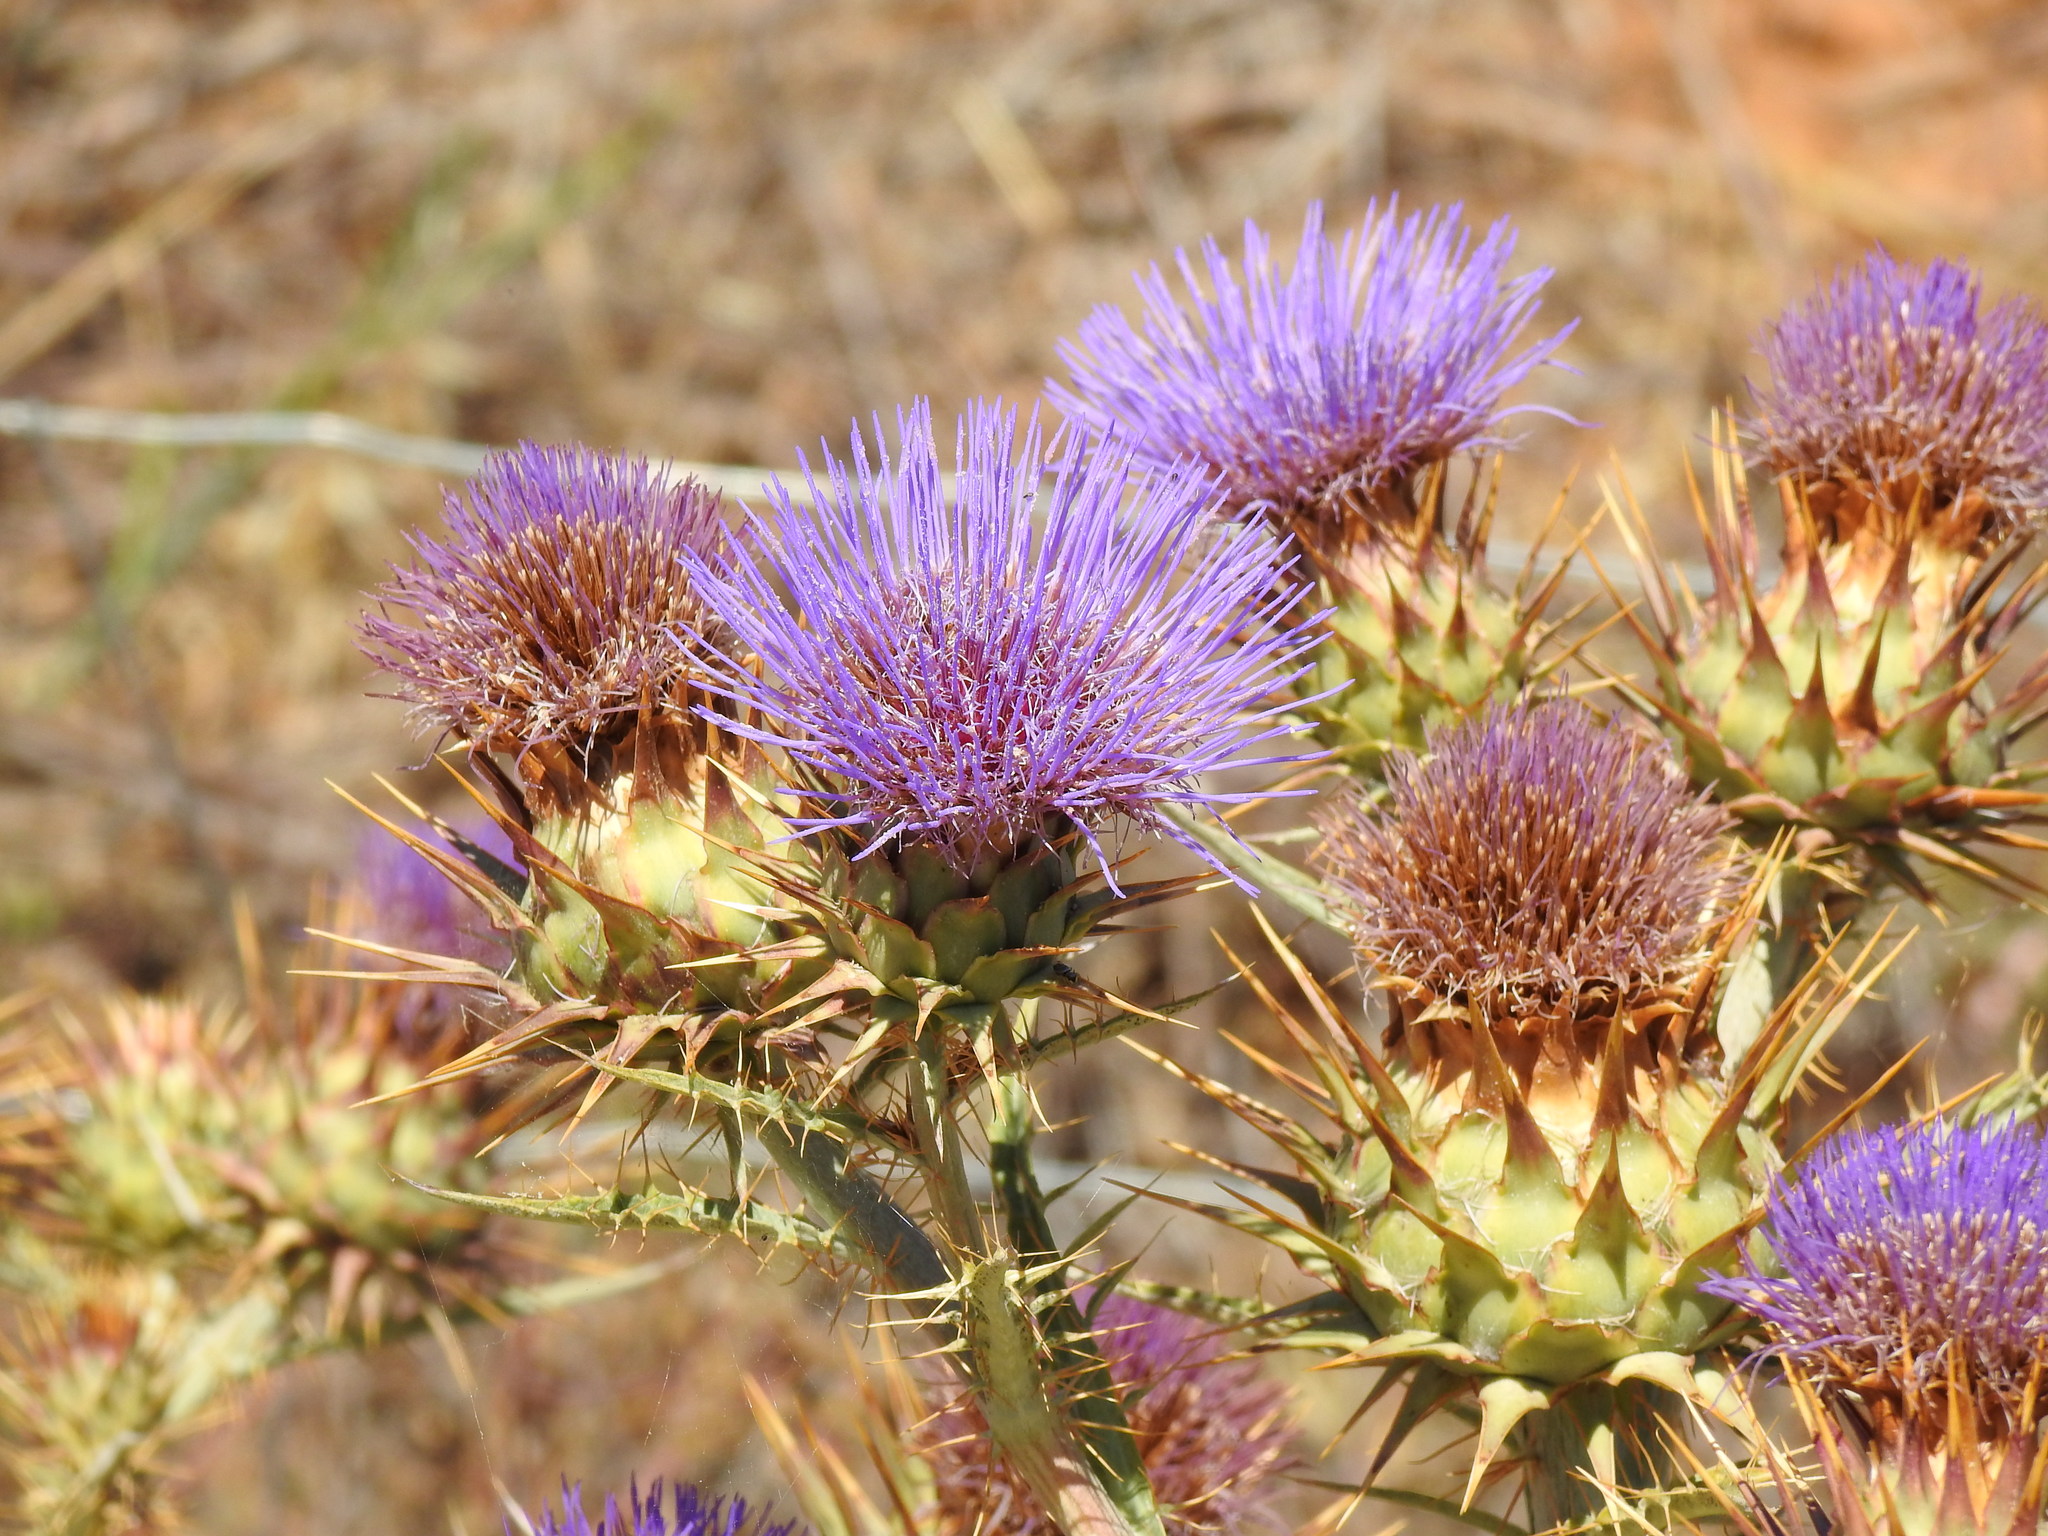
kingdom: Plantae
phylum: Tracheophyta
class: Magnoliopsida
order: Asterales
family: Asteraceae
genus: Cynara
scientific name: Cynara cardunculus
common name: Globe artichoke
